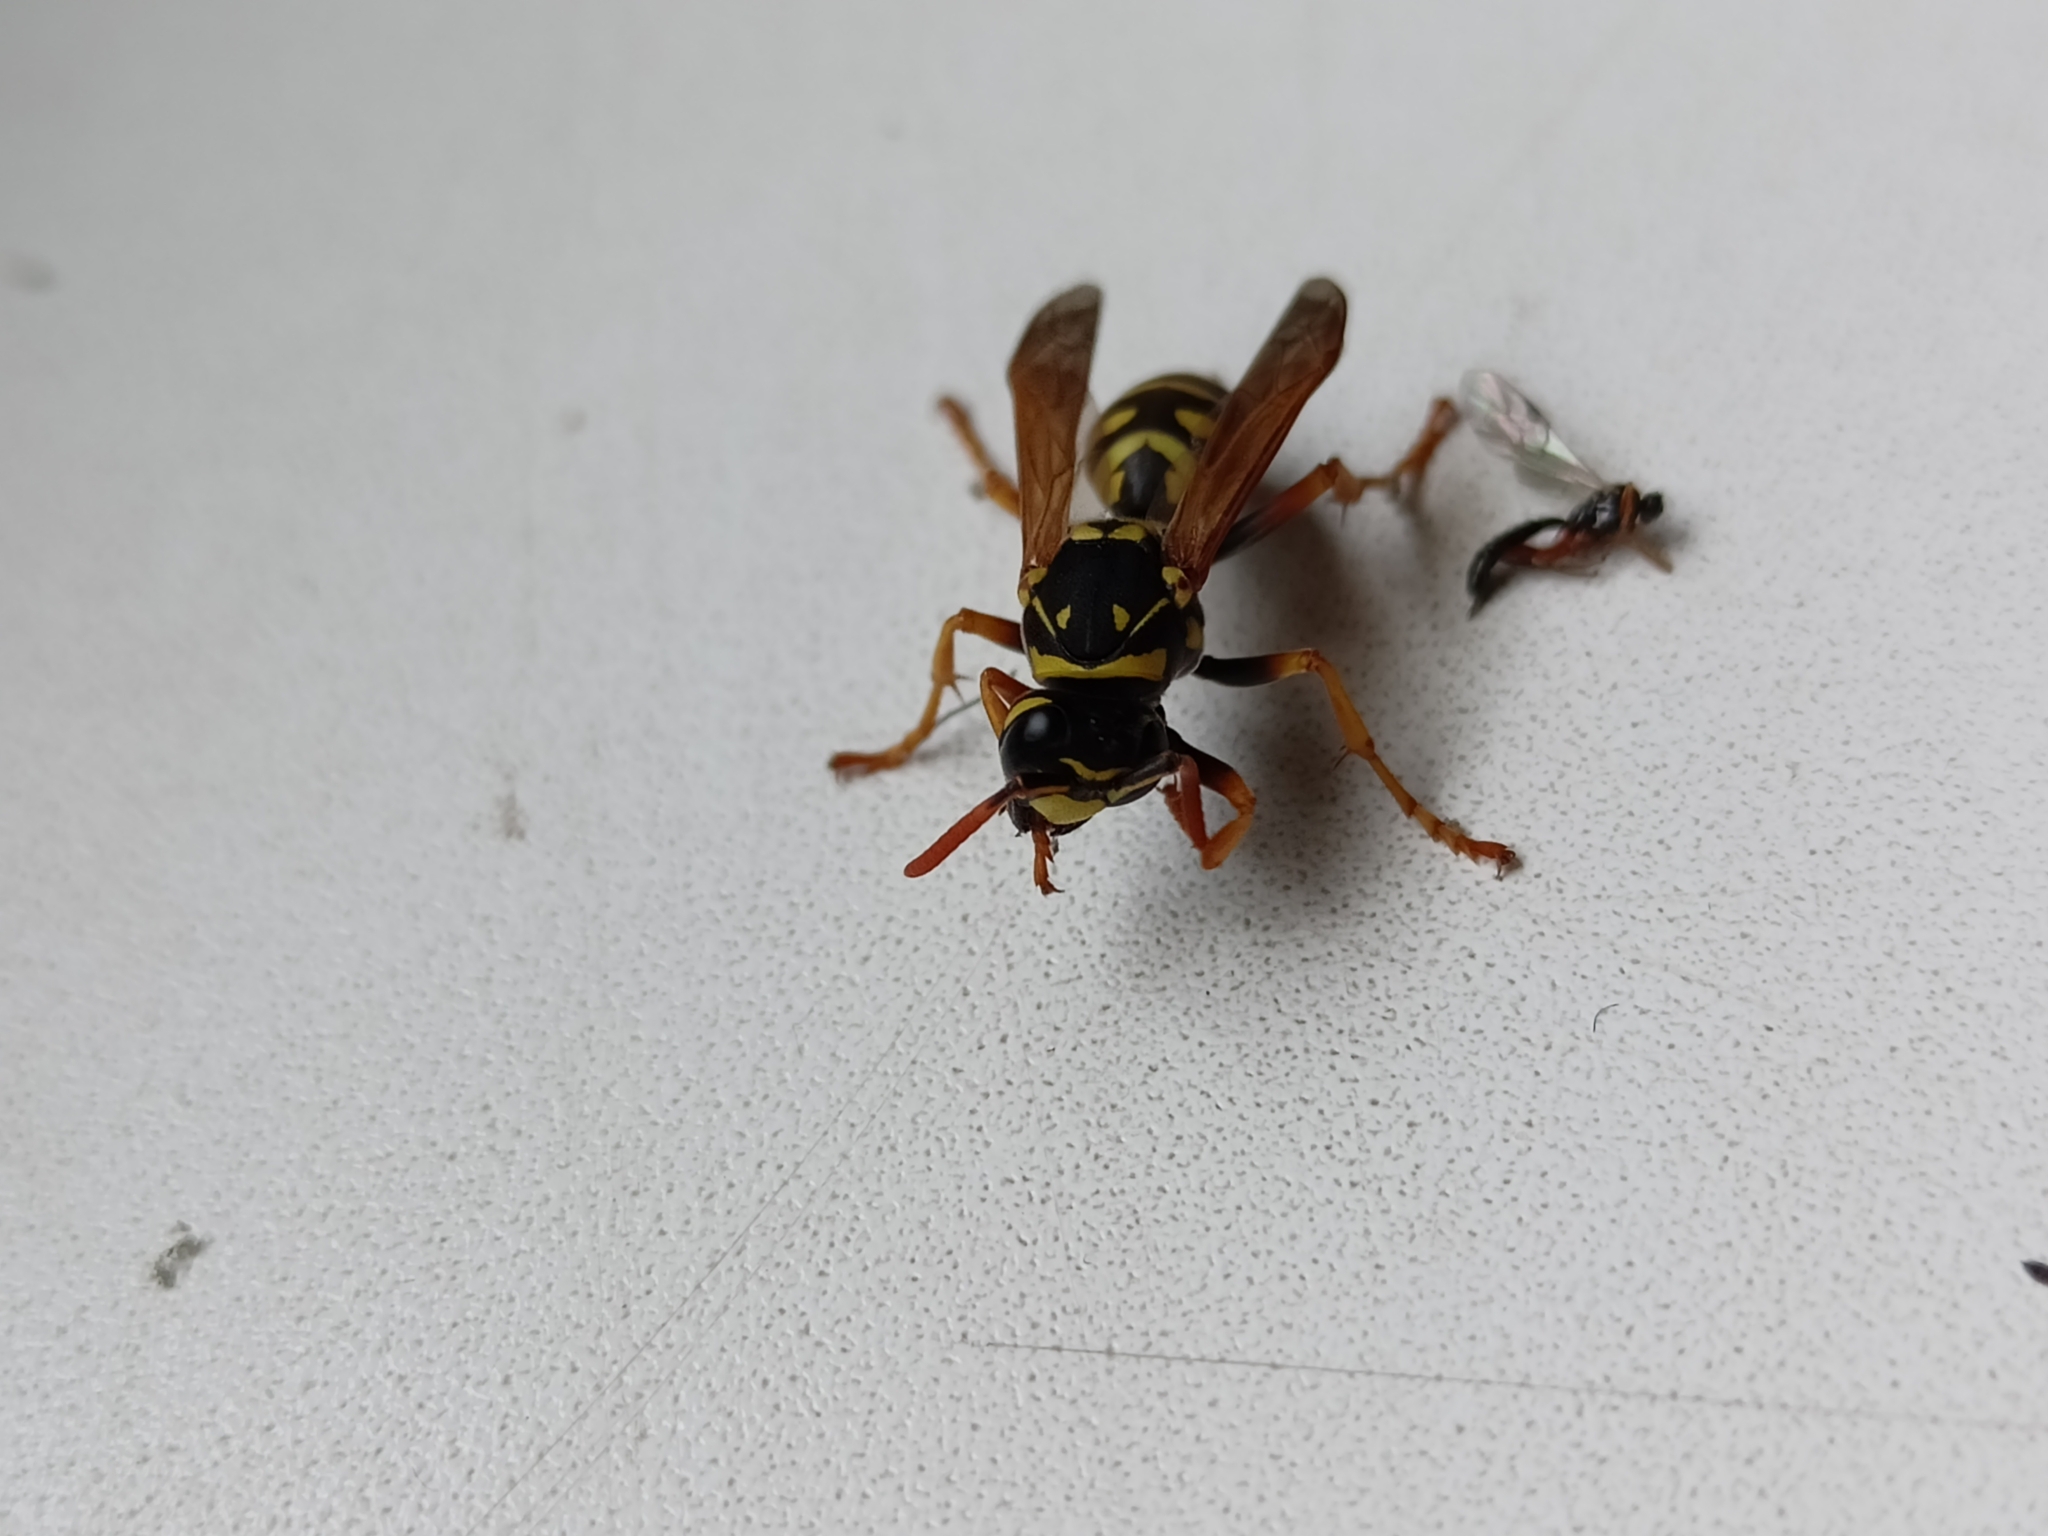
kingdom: Animalia
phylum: Arthropoda
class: Insecta
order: Hymenoptera
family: Eumenidae
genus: Polistes
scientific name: Polistes dominula
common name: Paper wasp
